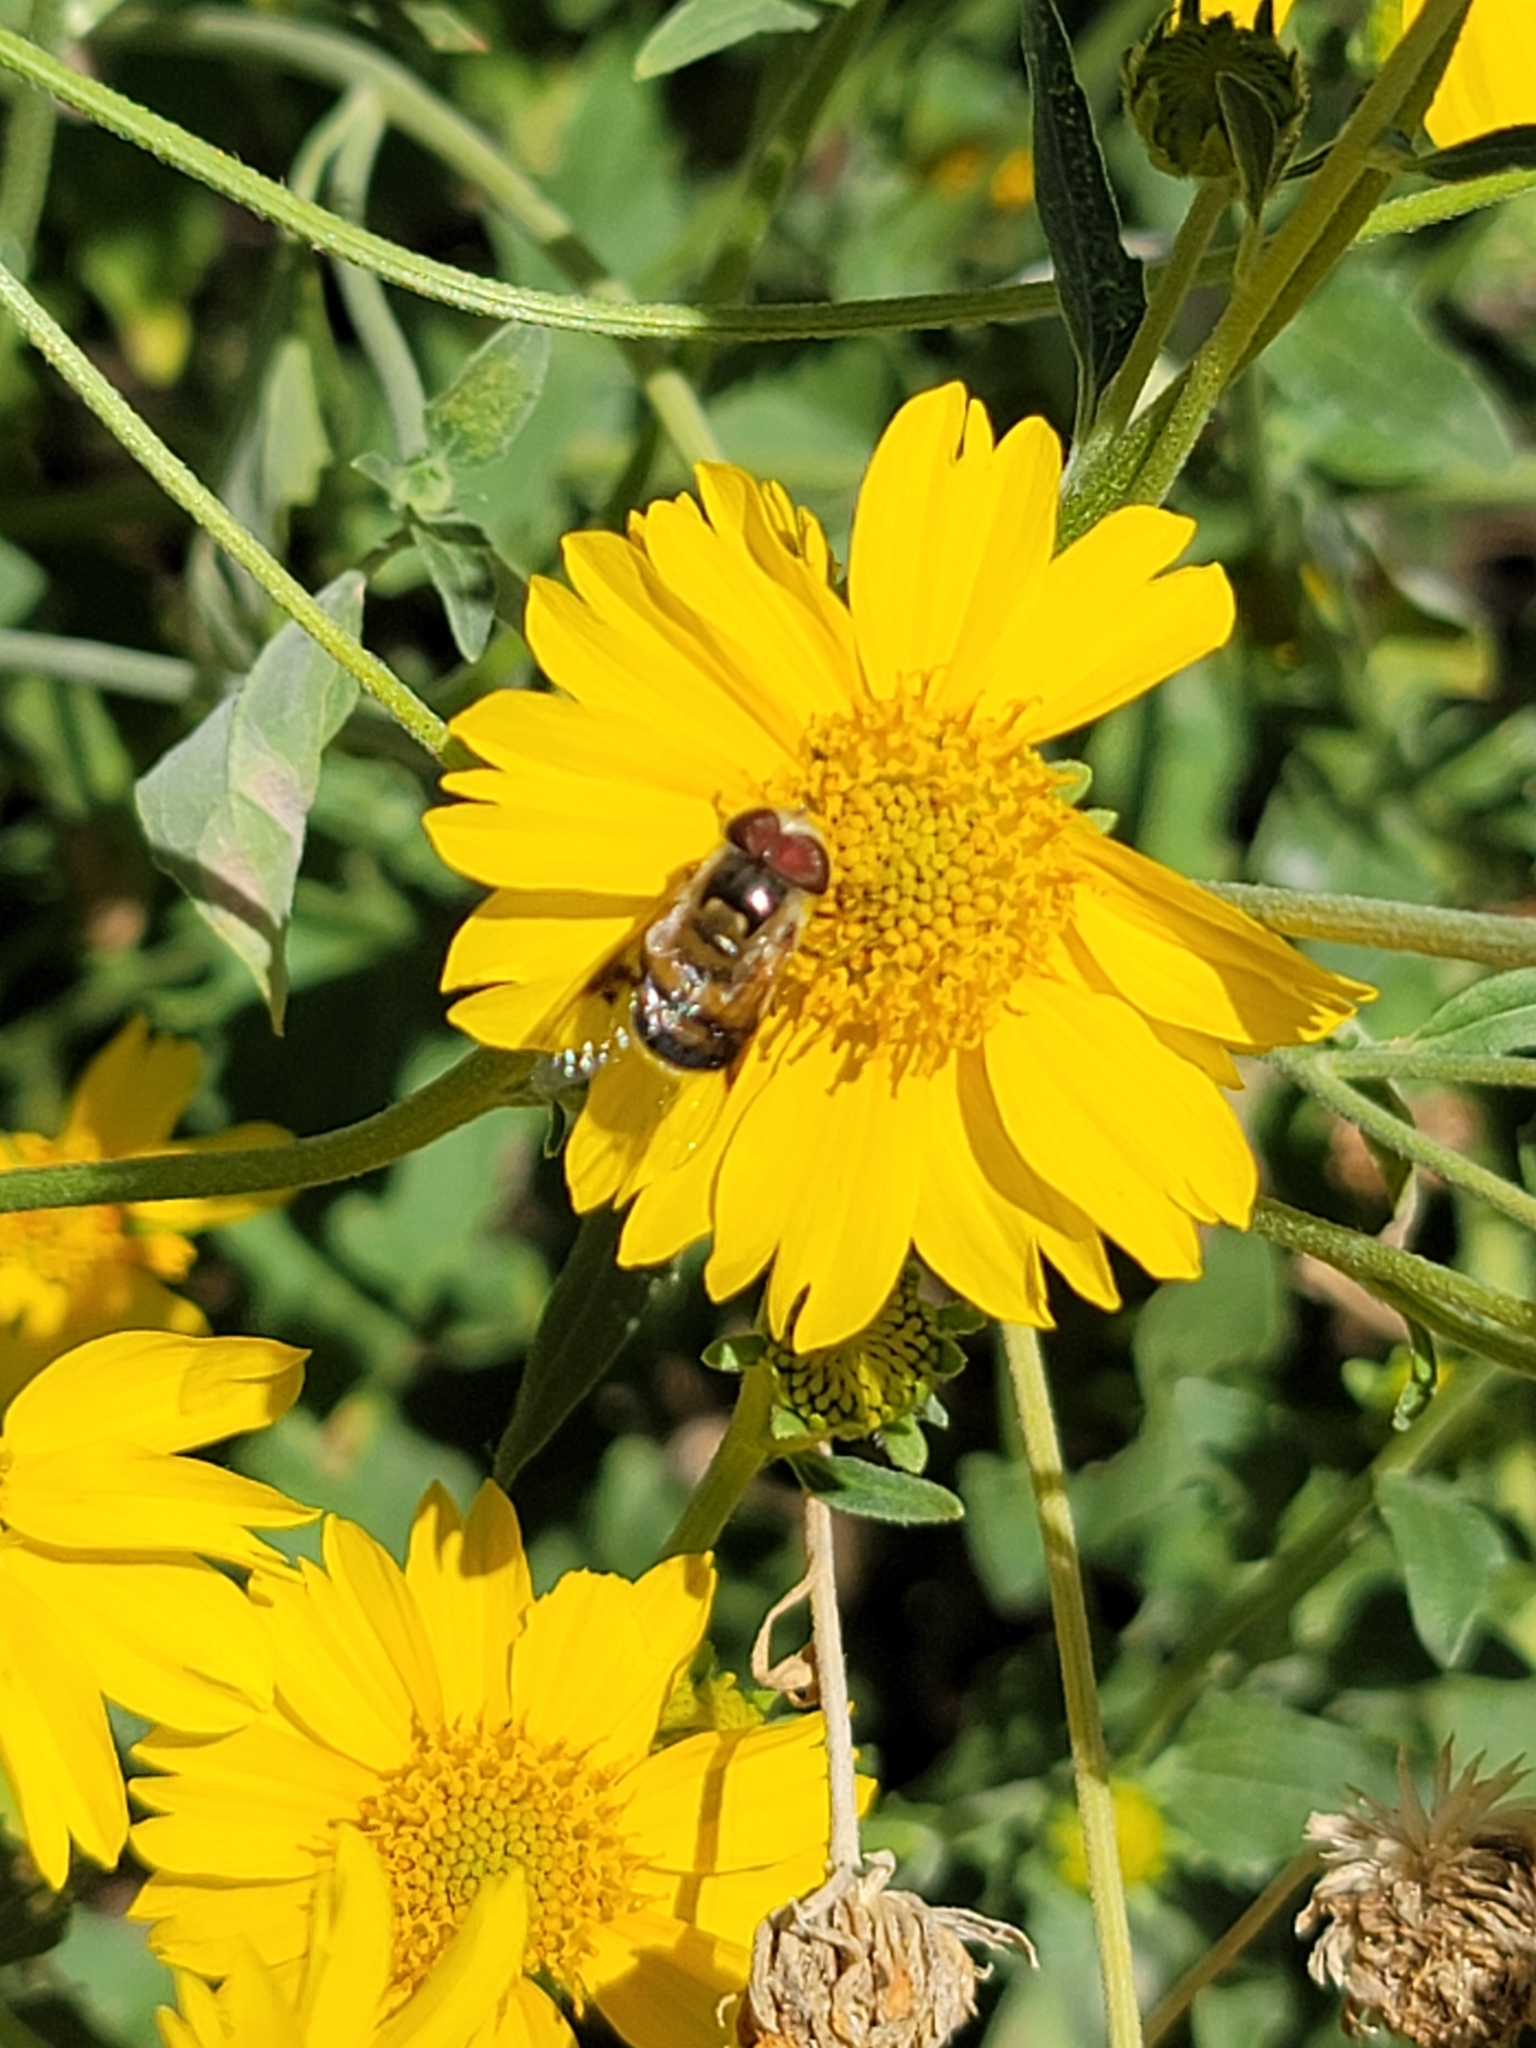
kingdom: Animalia
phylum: Arthropoda
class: Insecta
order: Diptera
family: Syrphidae
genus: Copestylum
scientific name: Copestylum apiciferum
